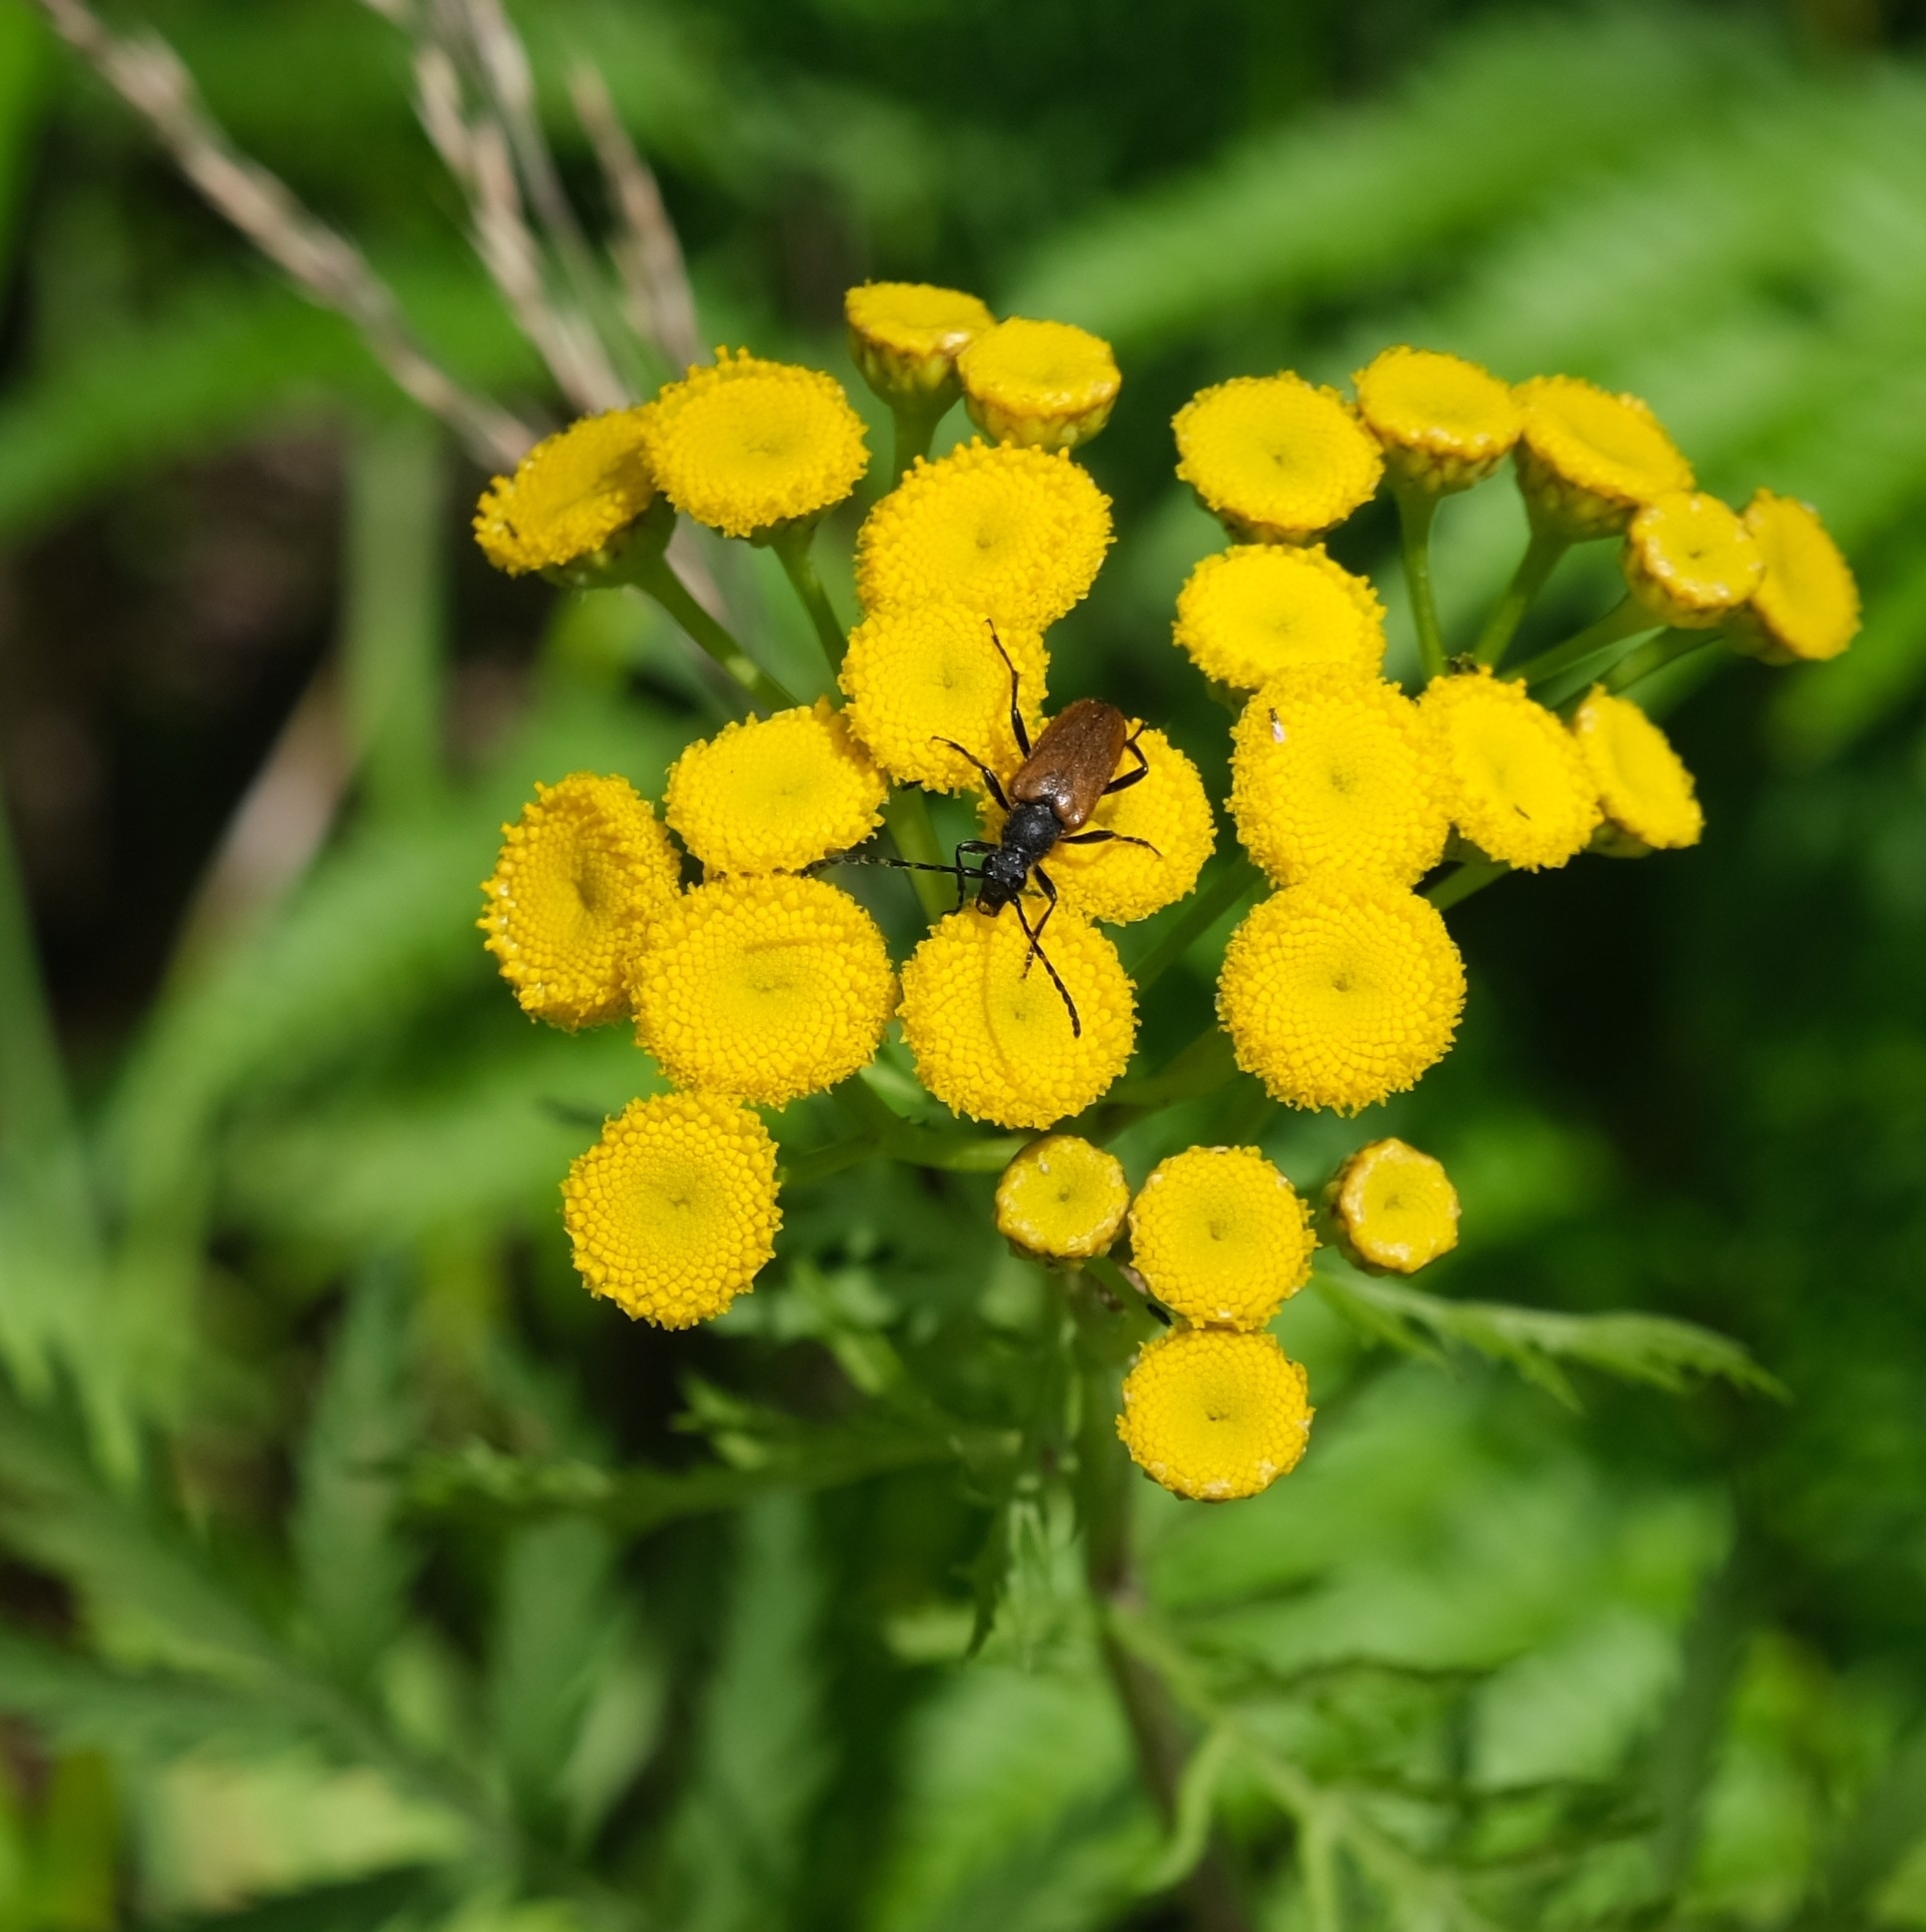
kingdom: Animalia
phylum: Arthropoda
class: Insecta
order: Coleoptera
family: Cerambycidae
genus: Paracorymbia
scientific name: Paracorymbia maculicornis
